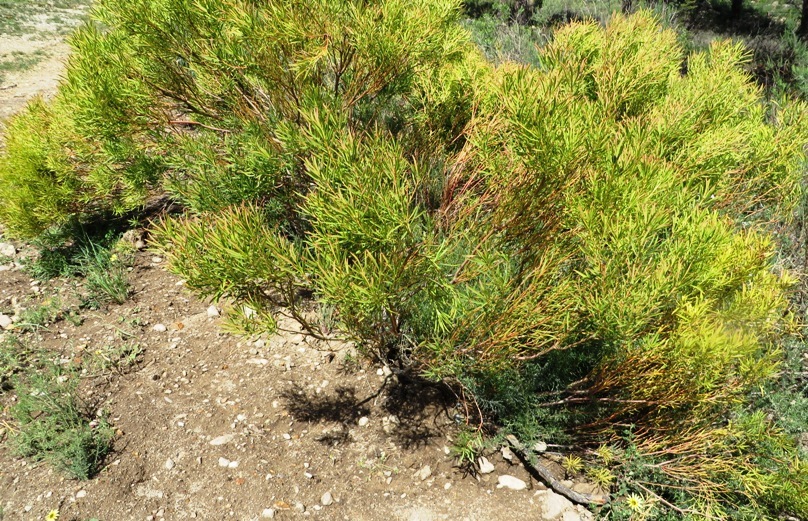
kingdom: Plantae
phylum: Tracheophyta
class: Magnoliopsida
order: Proteales
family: Proteaceae
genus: Leucadendron
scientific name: Leucadendron salignum
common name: Common sunshine conebush
